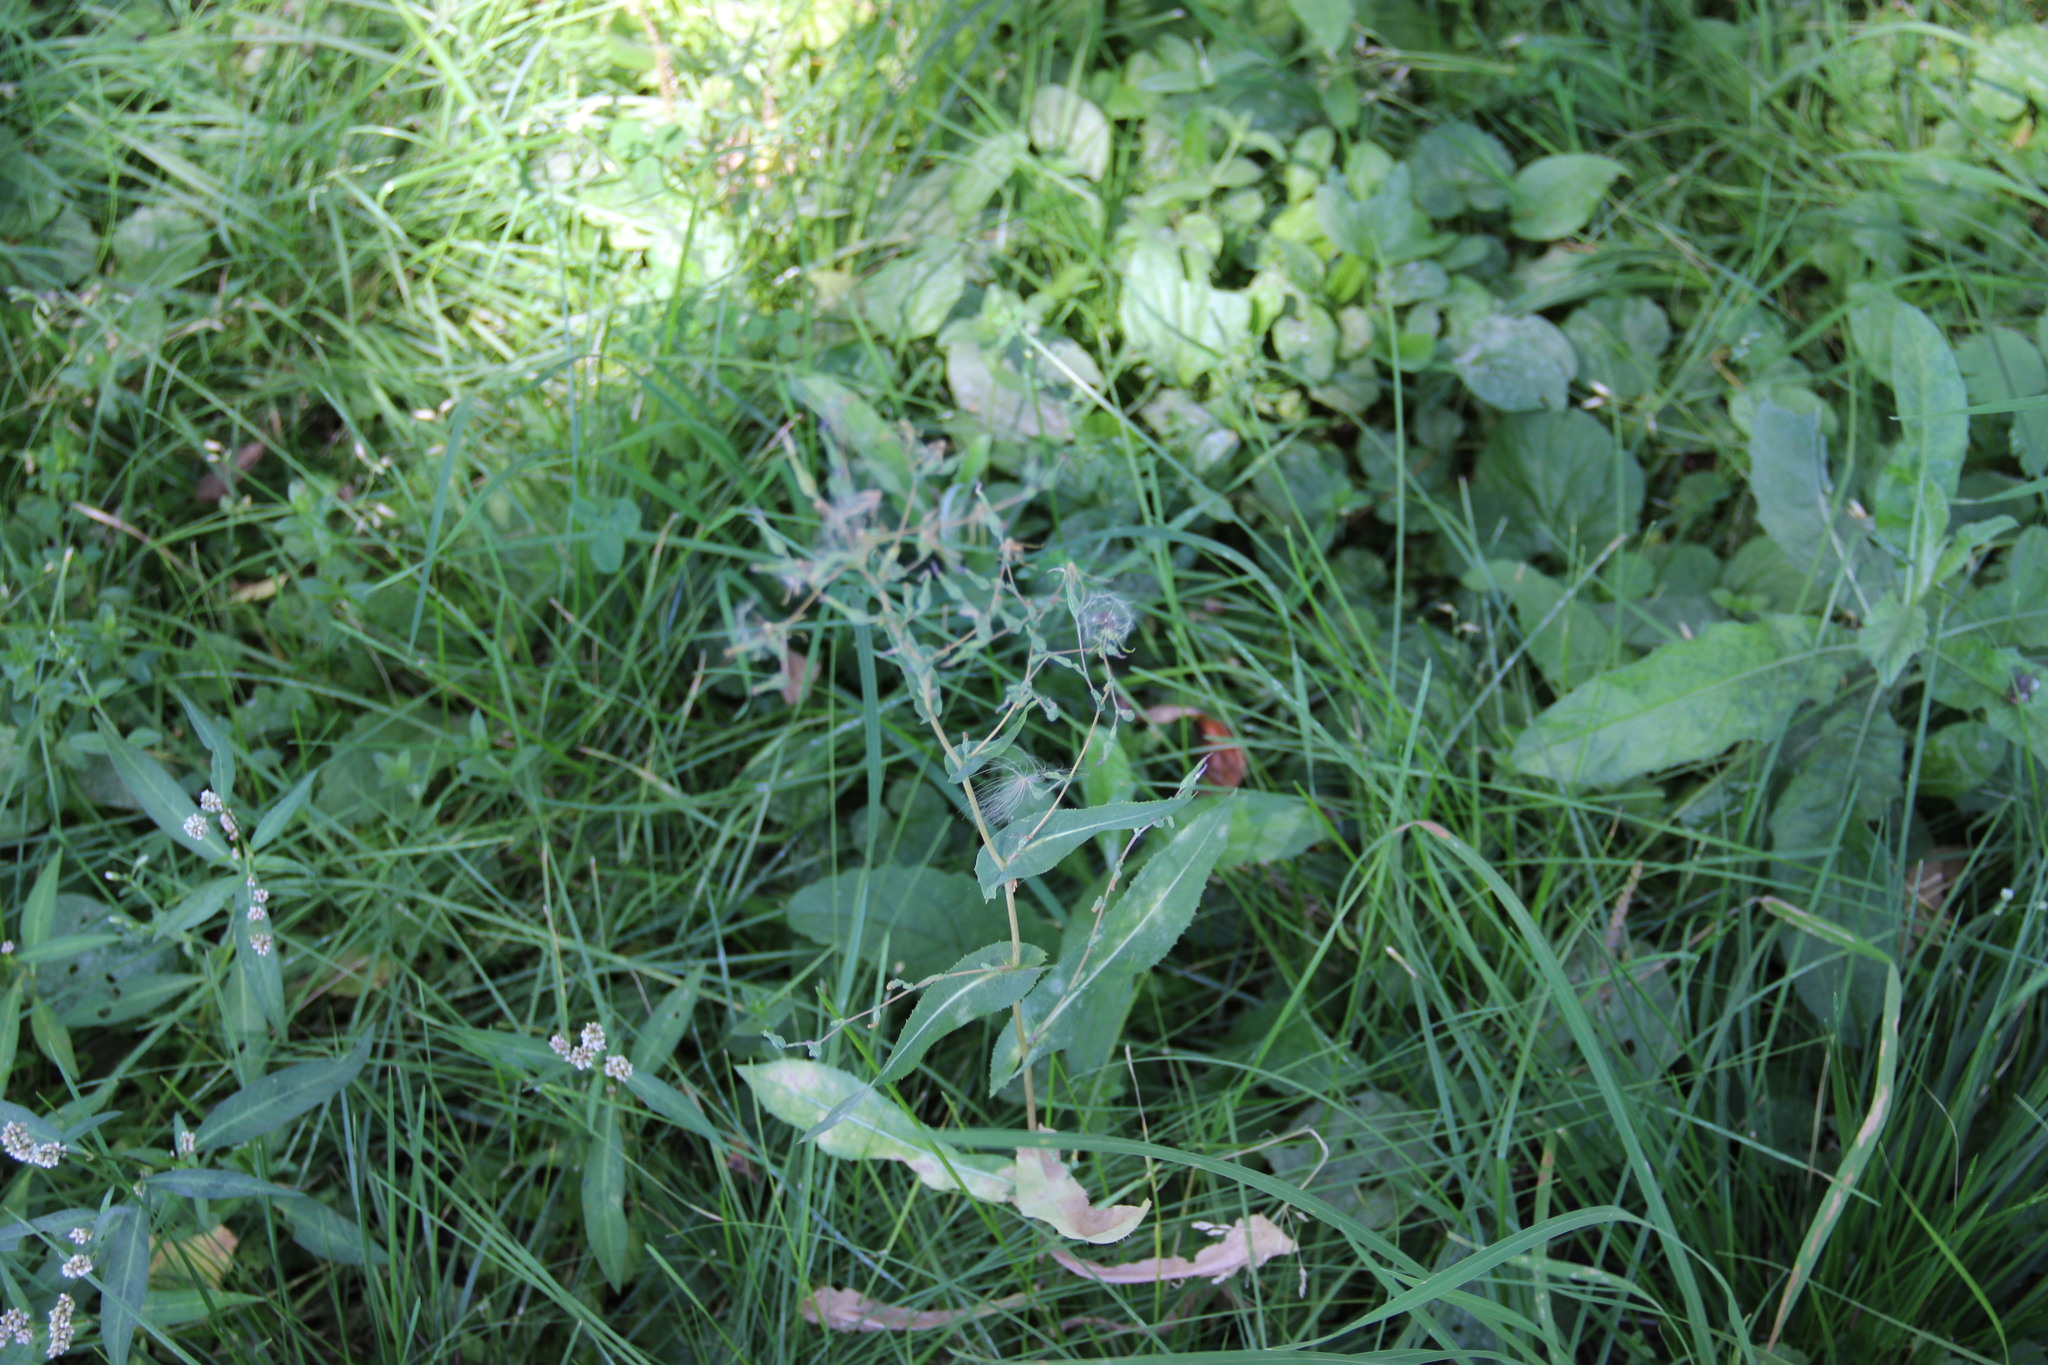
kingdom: Plantae
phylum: Tracheophyta
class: Magnoliopsida
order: Asterales
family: Asteraceae
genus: Lactuca
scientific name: Lactuca serriola
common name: Prickly lettuce
